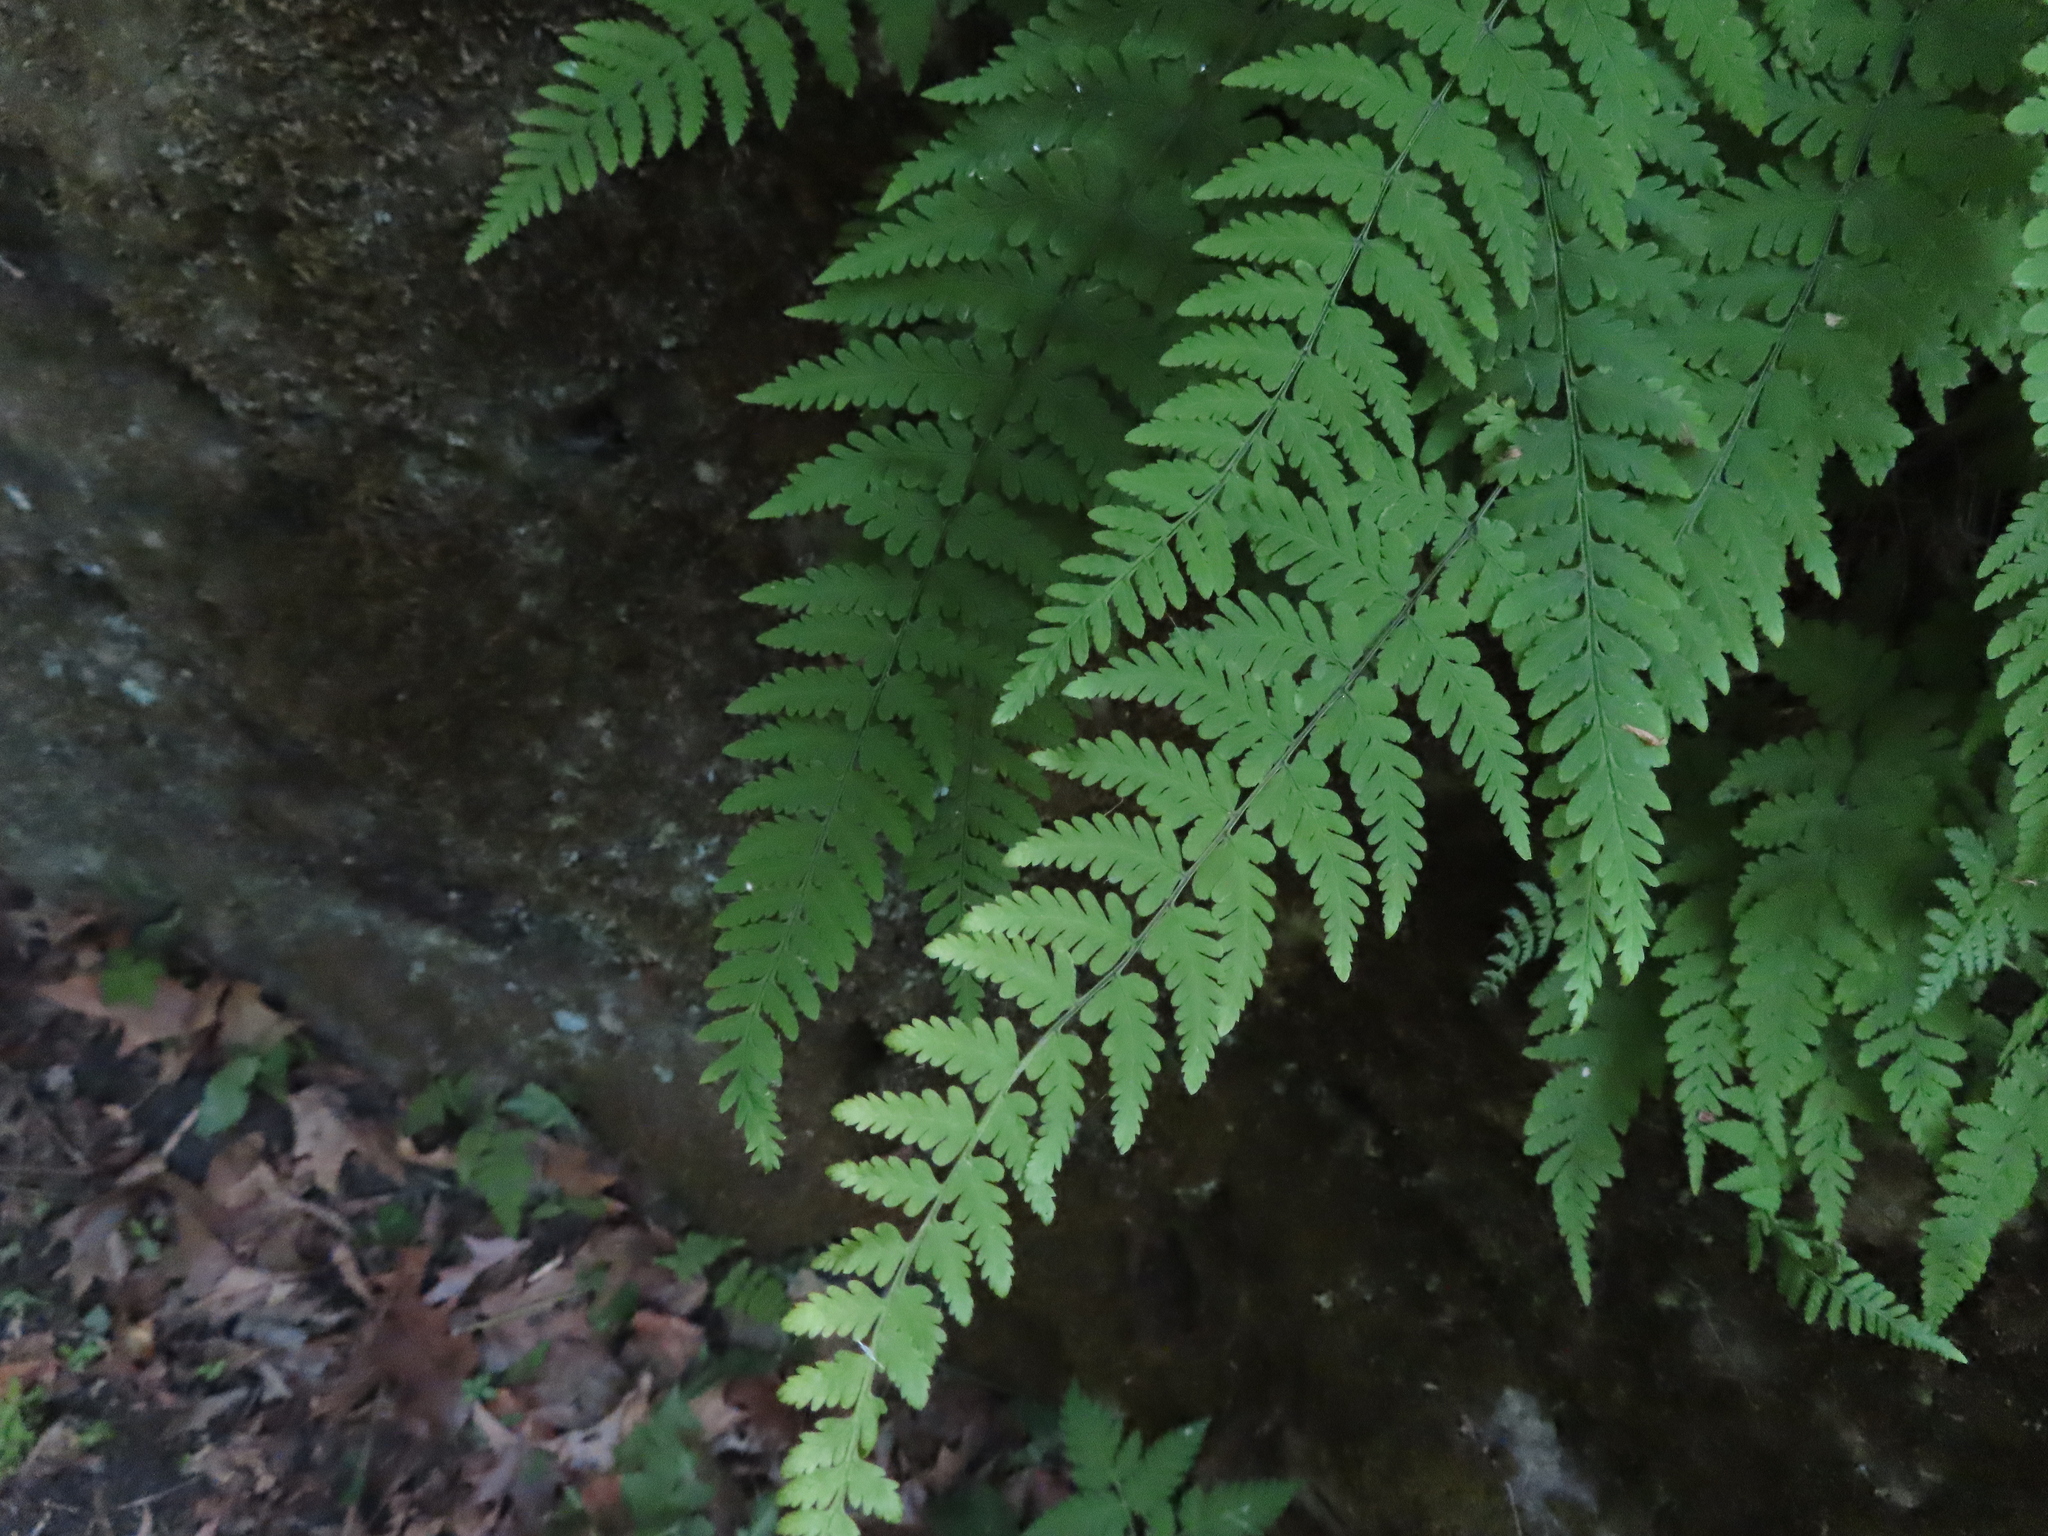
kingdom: Plantae
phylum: Tracheophyta
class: Polypodiopsida
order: Polypodiales
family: Cystopteridaceae
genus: Cystopteris
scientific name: Cystopteris bulbifera
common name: Bulblet bladder fern
